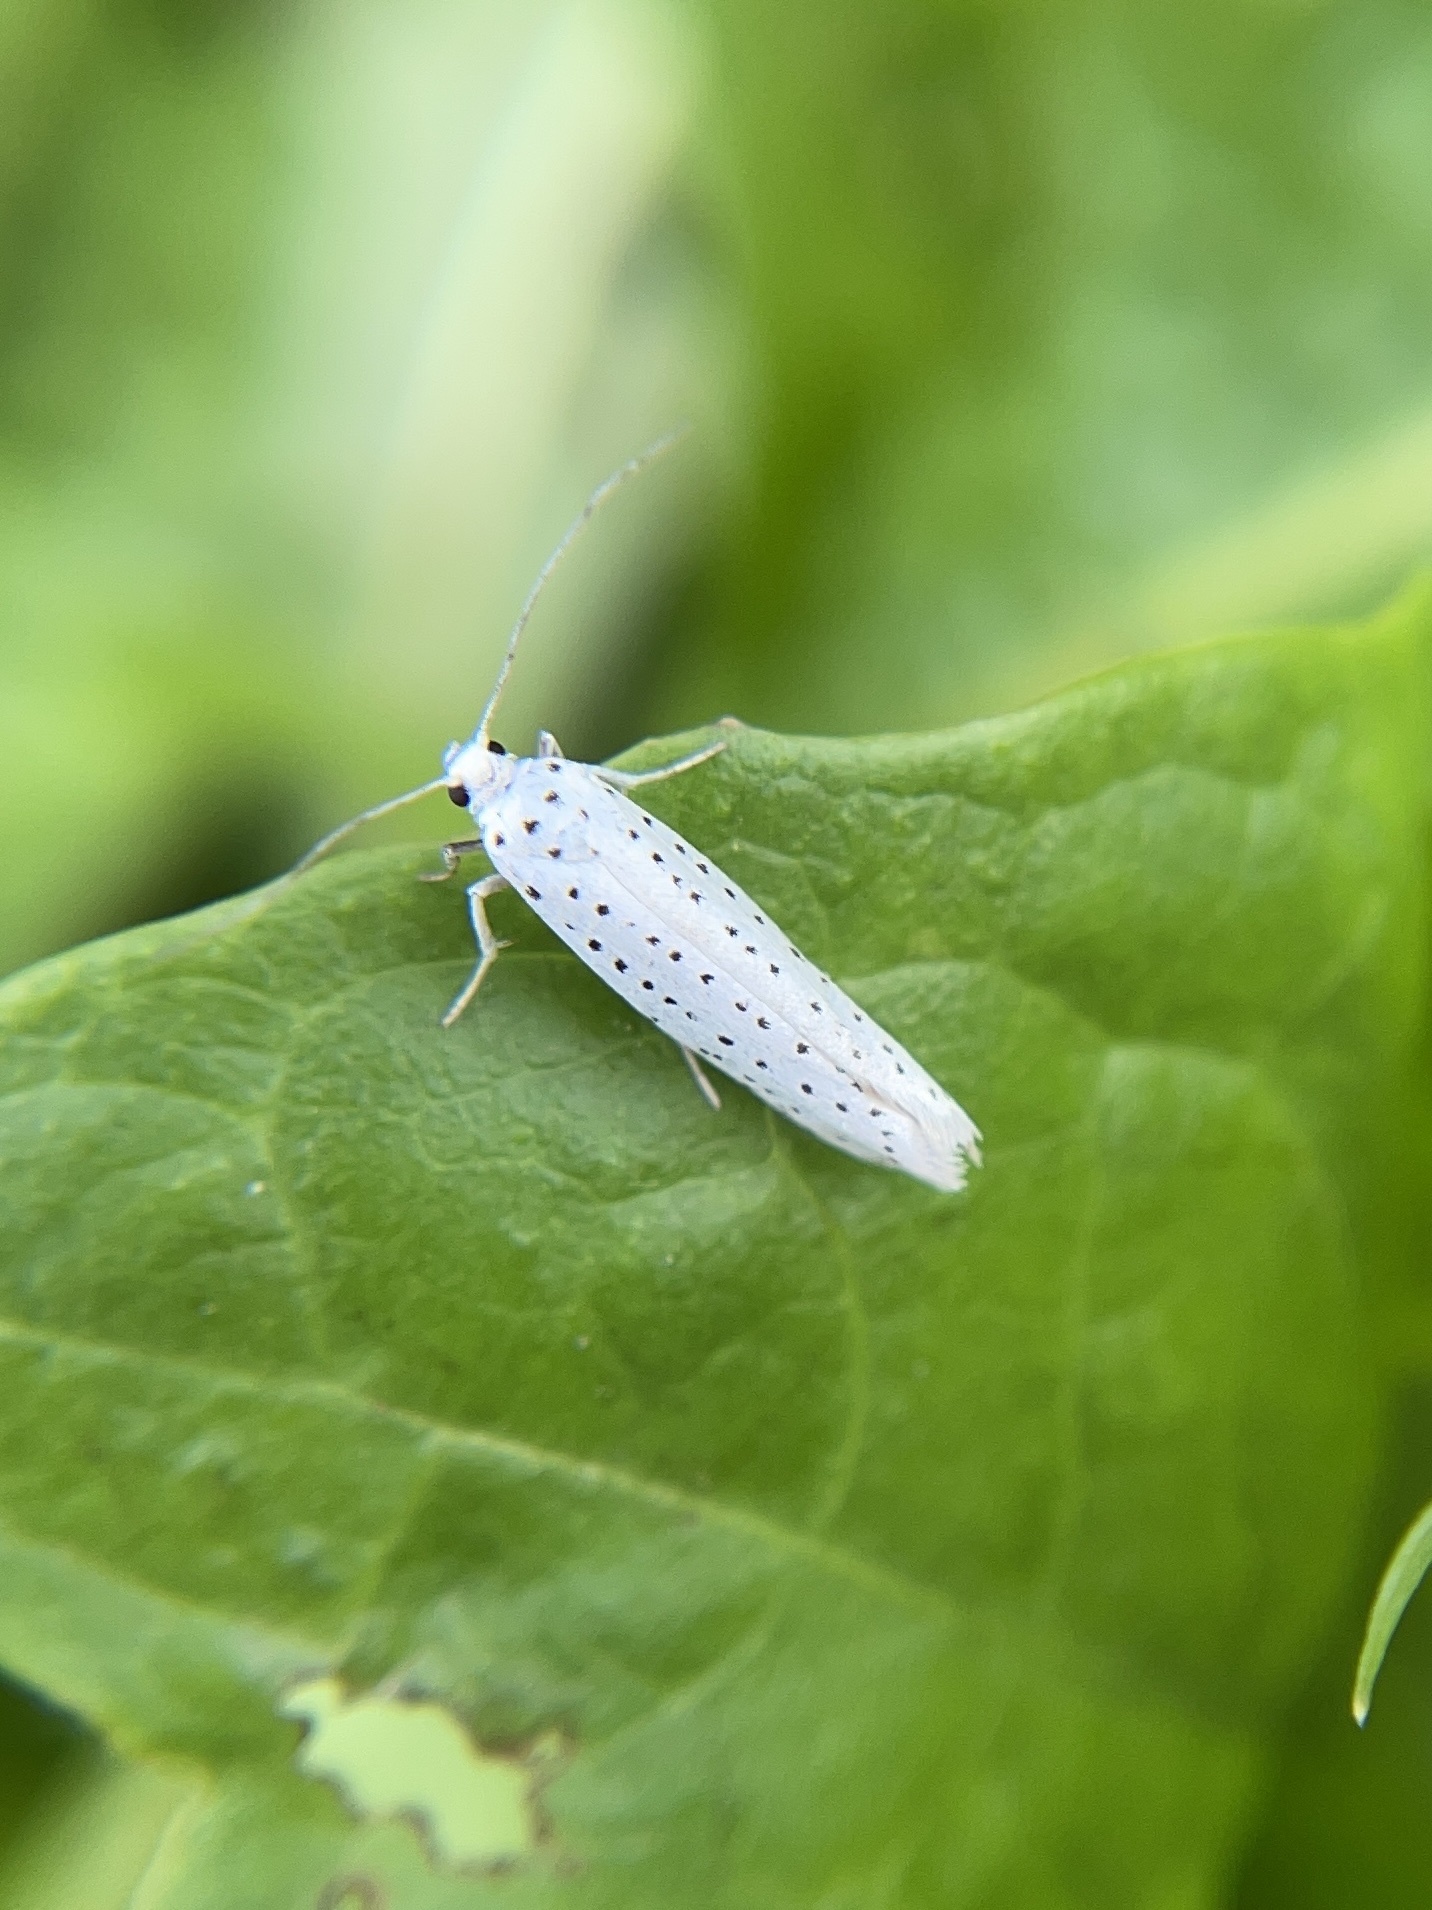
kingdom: Animalia
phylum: Arthropoda
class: Insecta
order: Lepidoptera
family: Yponomeutidae
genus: Yponomeuta
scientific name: Yponomeuta evonymella
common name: Bird-cherry ermine
